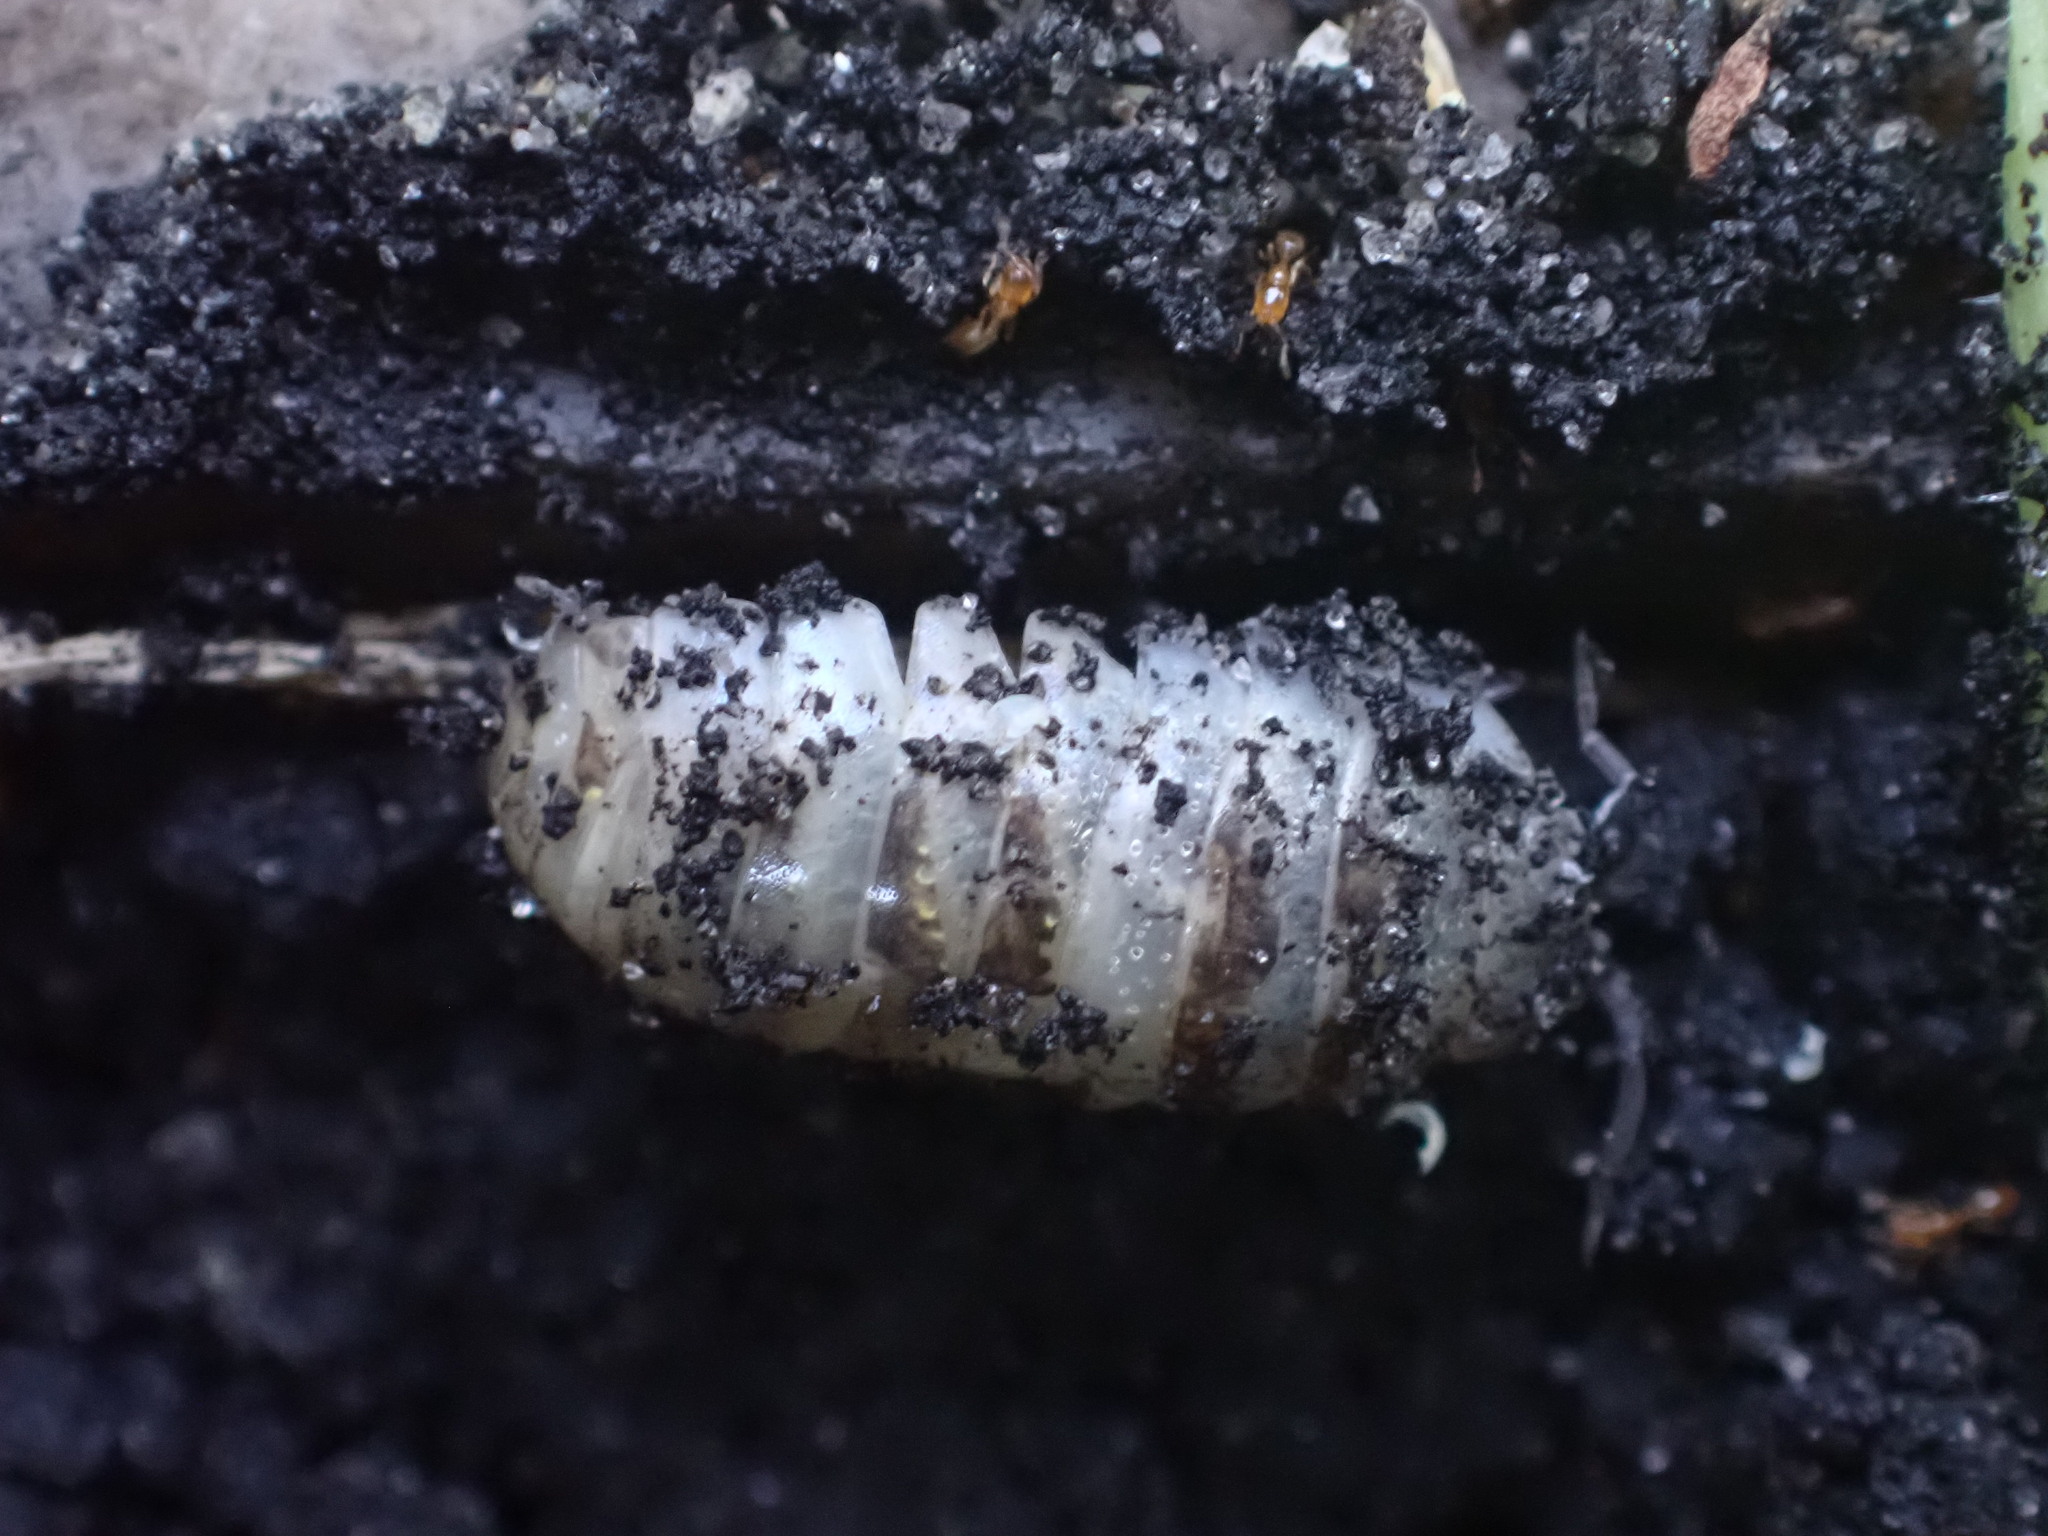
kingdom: Animalia
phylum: Arthropoda
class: Malacostraca
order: Isopoda
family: Armadillidiidae
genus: Armadillidium
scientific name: Armadillidium vulgare
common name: Common pill woodlouse
